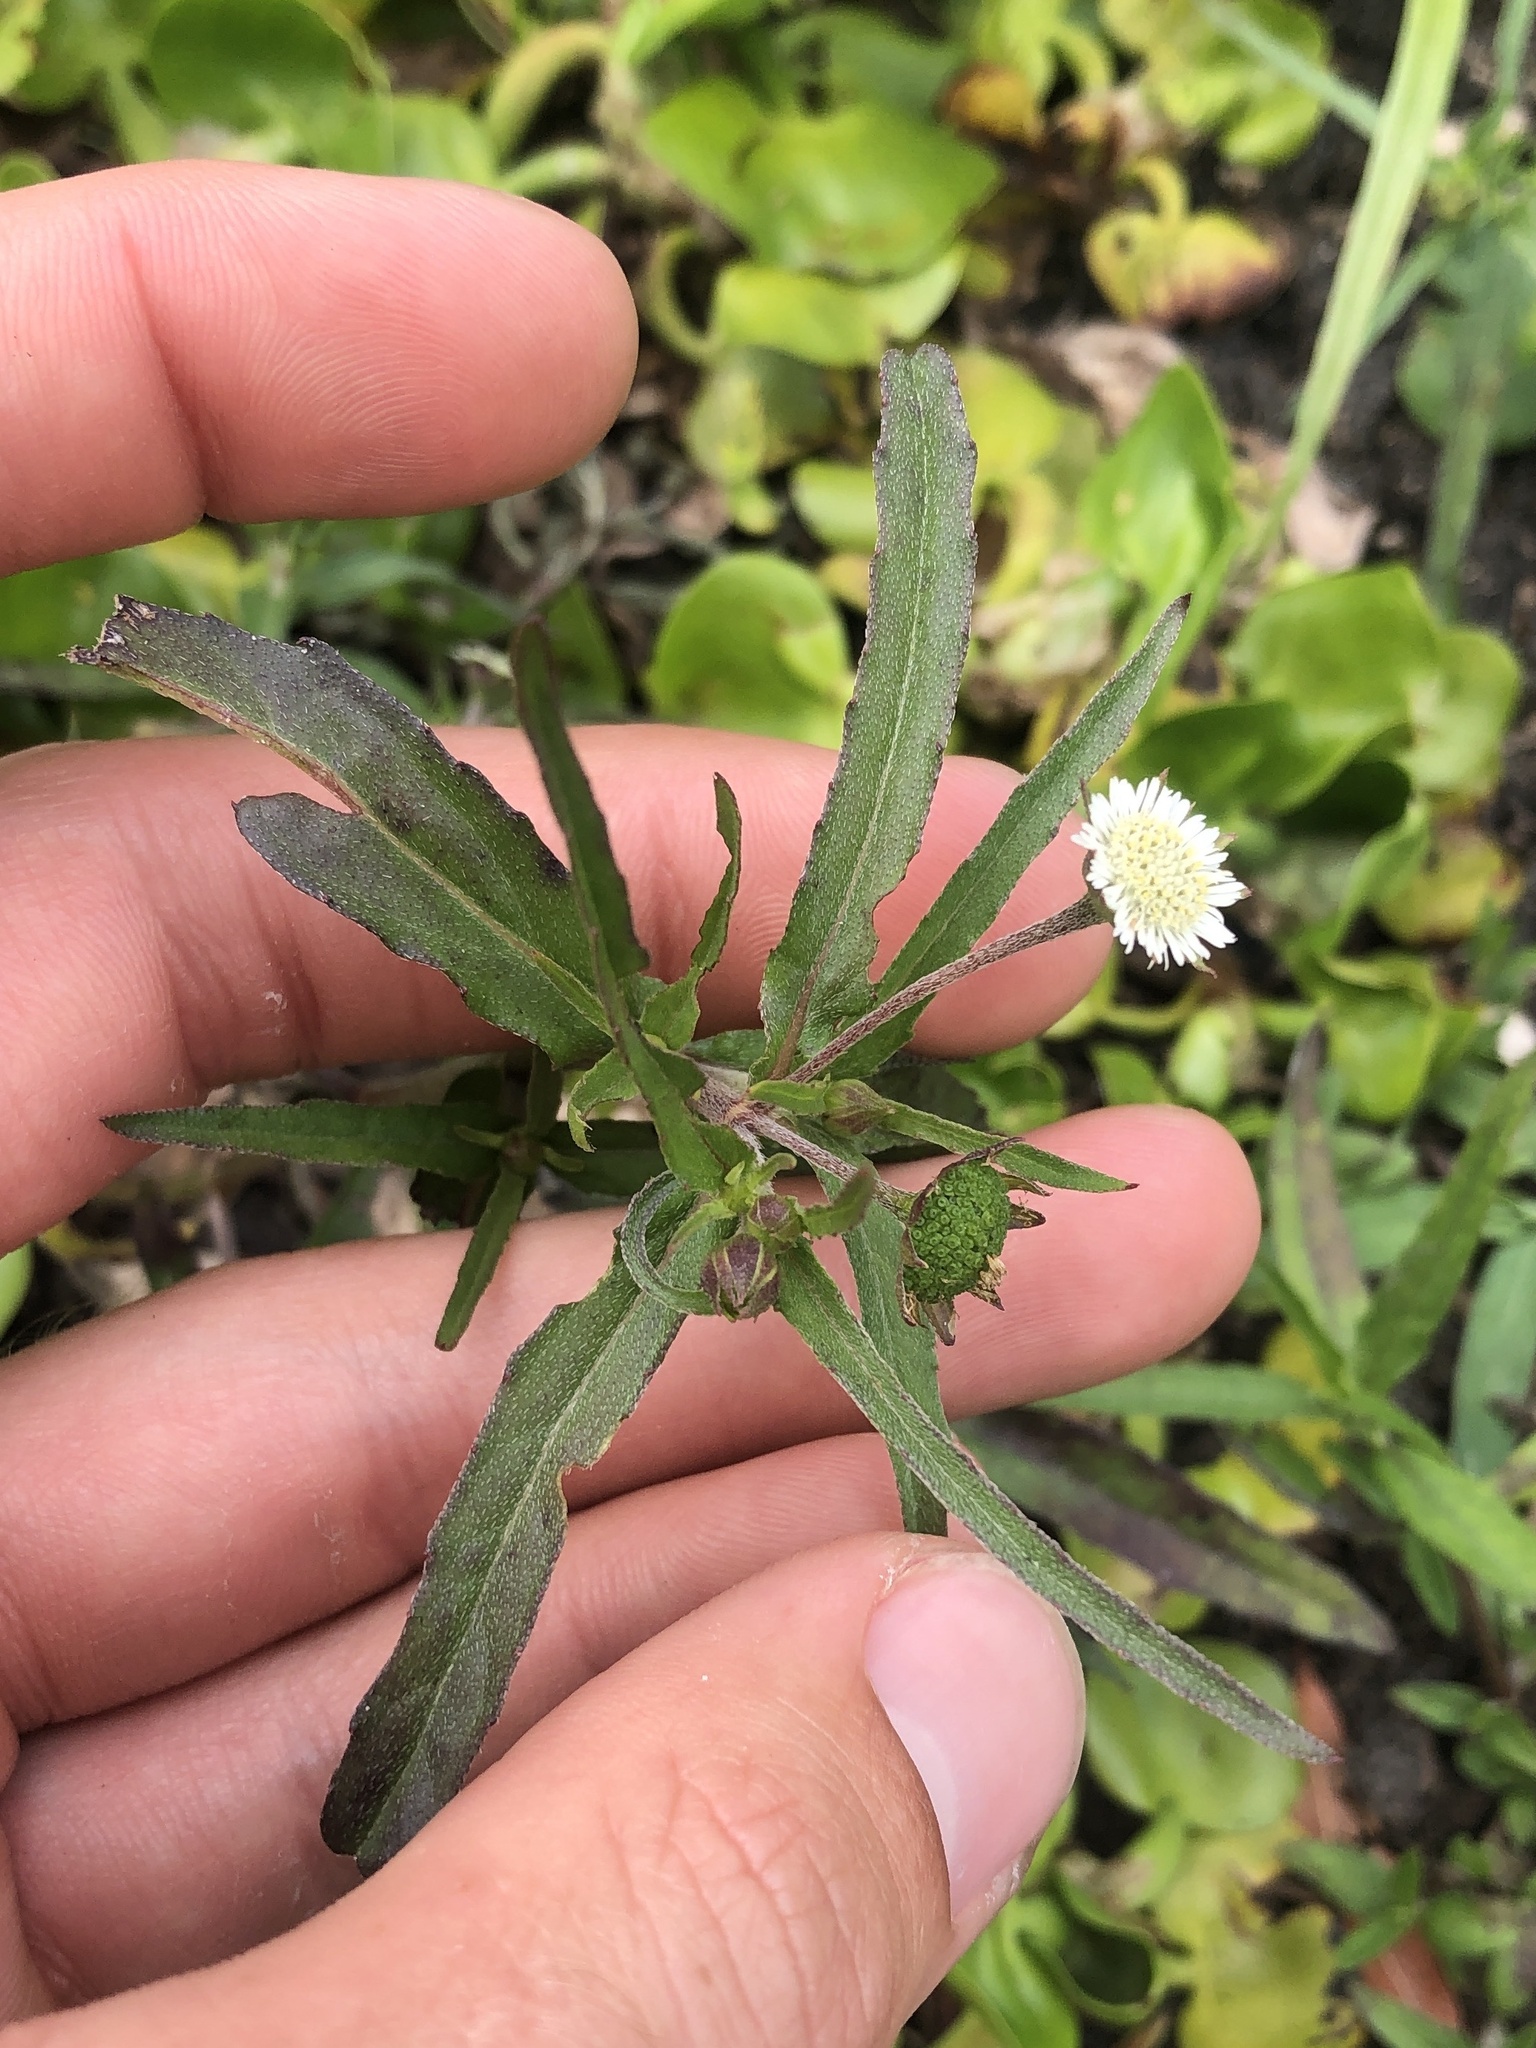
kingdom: Plantae
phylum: Tracheophyta
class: Magnoliopsida
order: Asterales
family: Asteraceae
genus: Eclipta
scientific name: Eclipta prostrata
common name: False daisy
